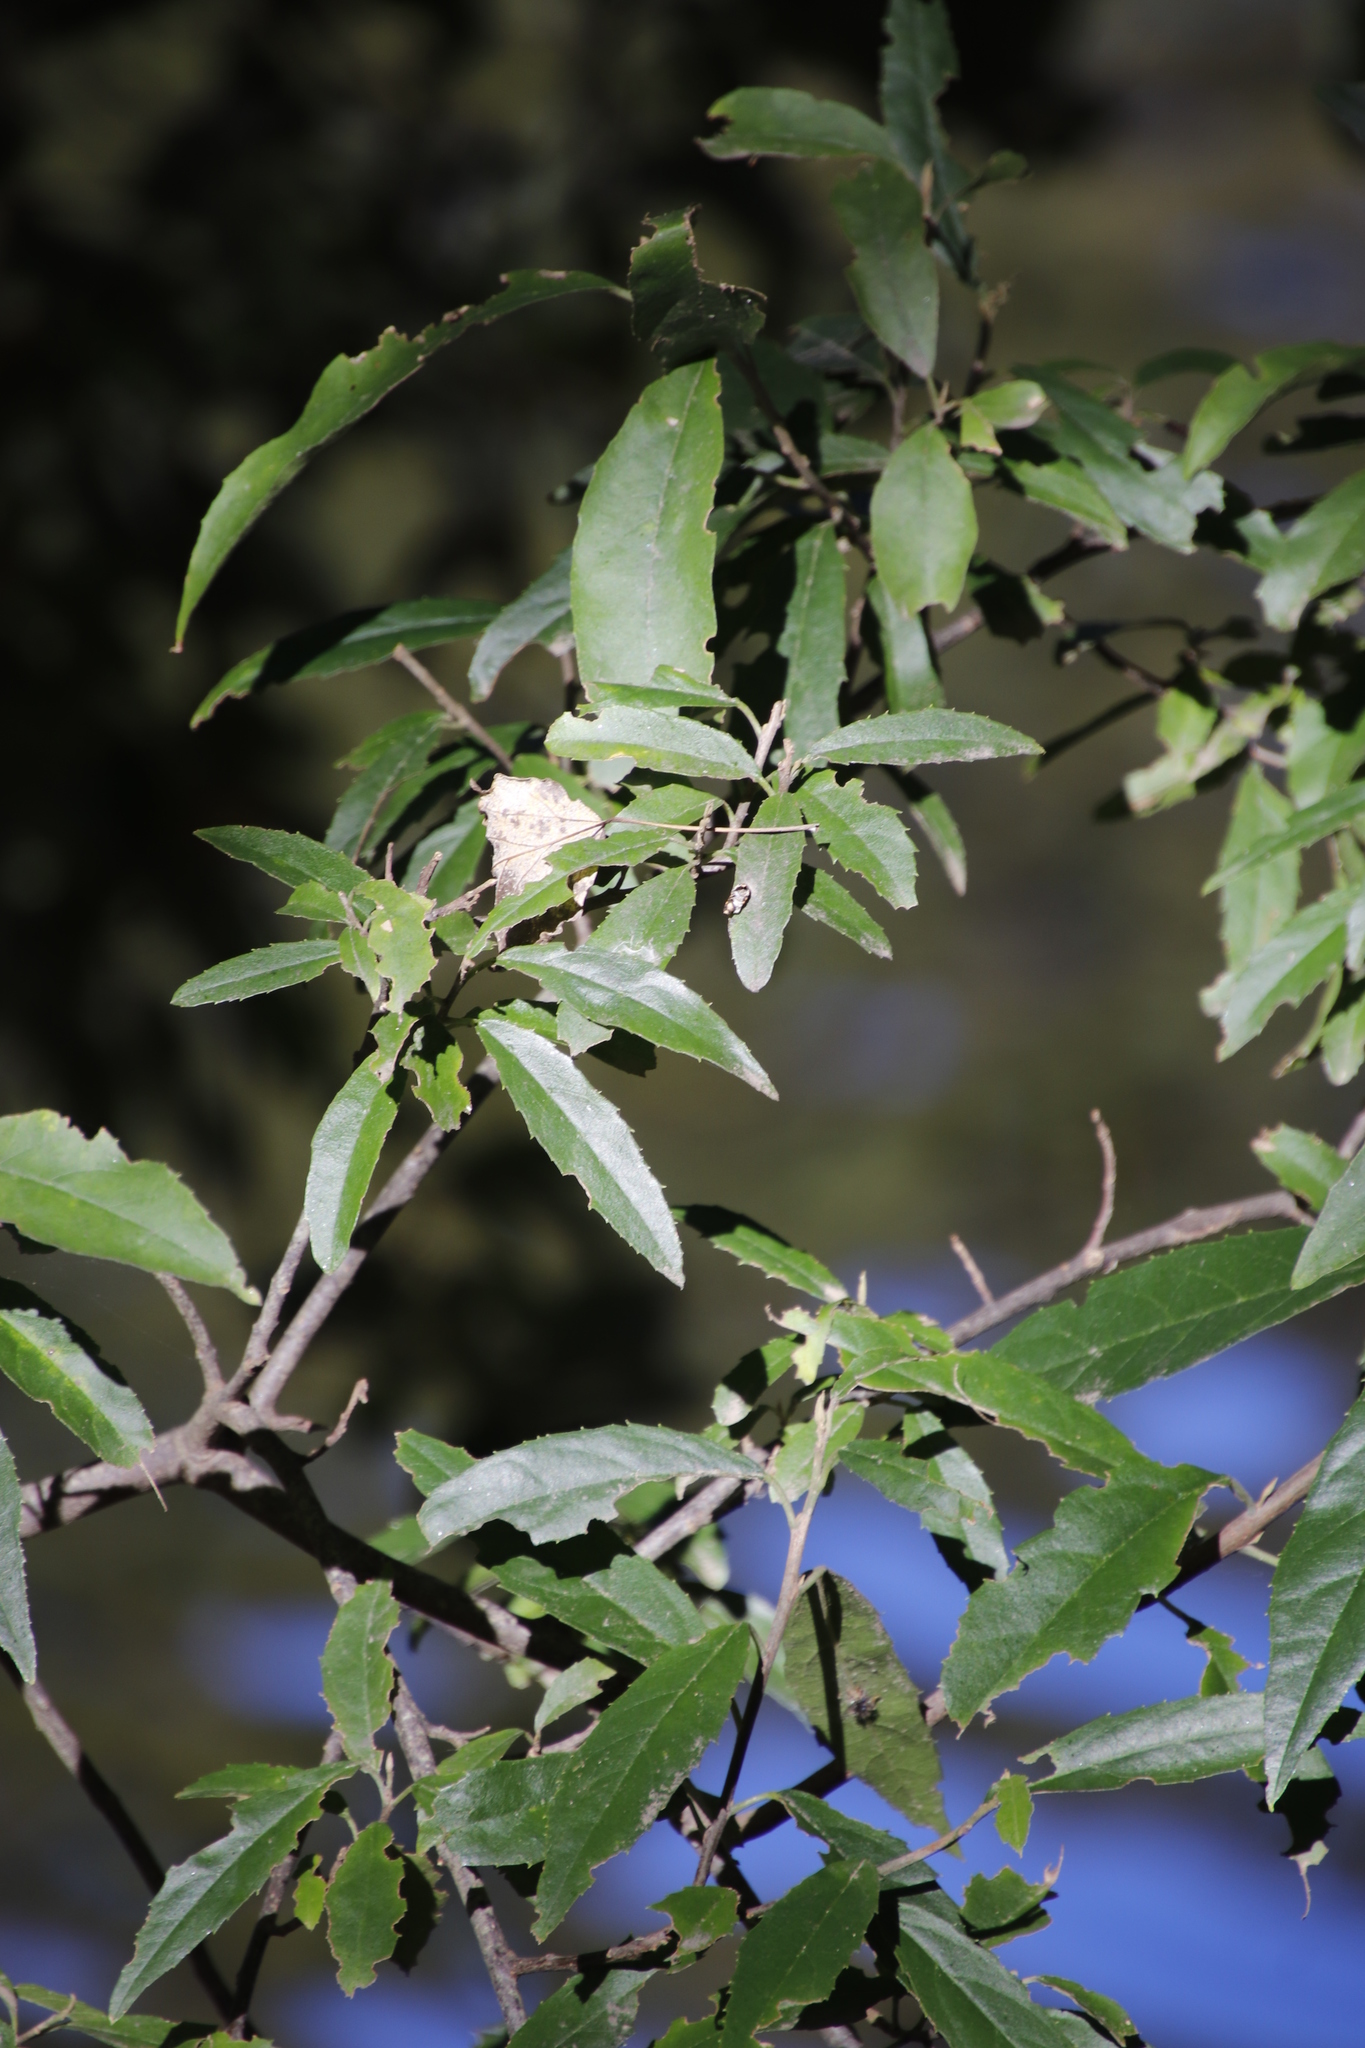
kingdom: Plantae
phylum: Tracheophyta
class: Magnoliopsida
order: Malpighiales
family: Achariaceae
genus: Kiggelaria
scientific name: Kiggelaria africana
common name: Wild peach
